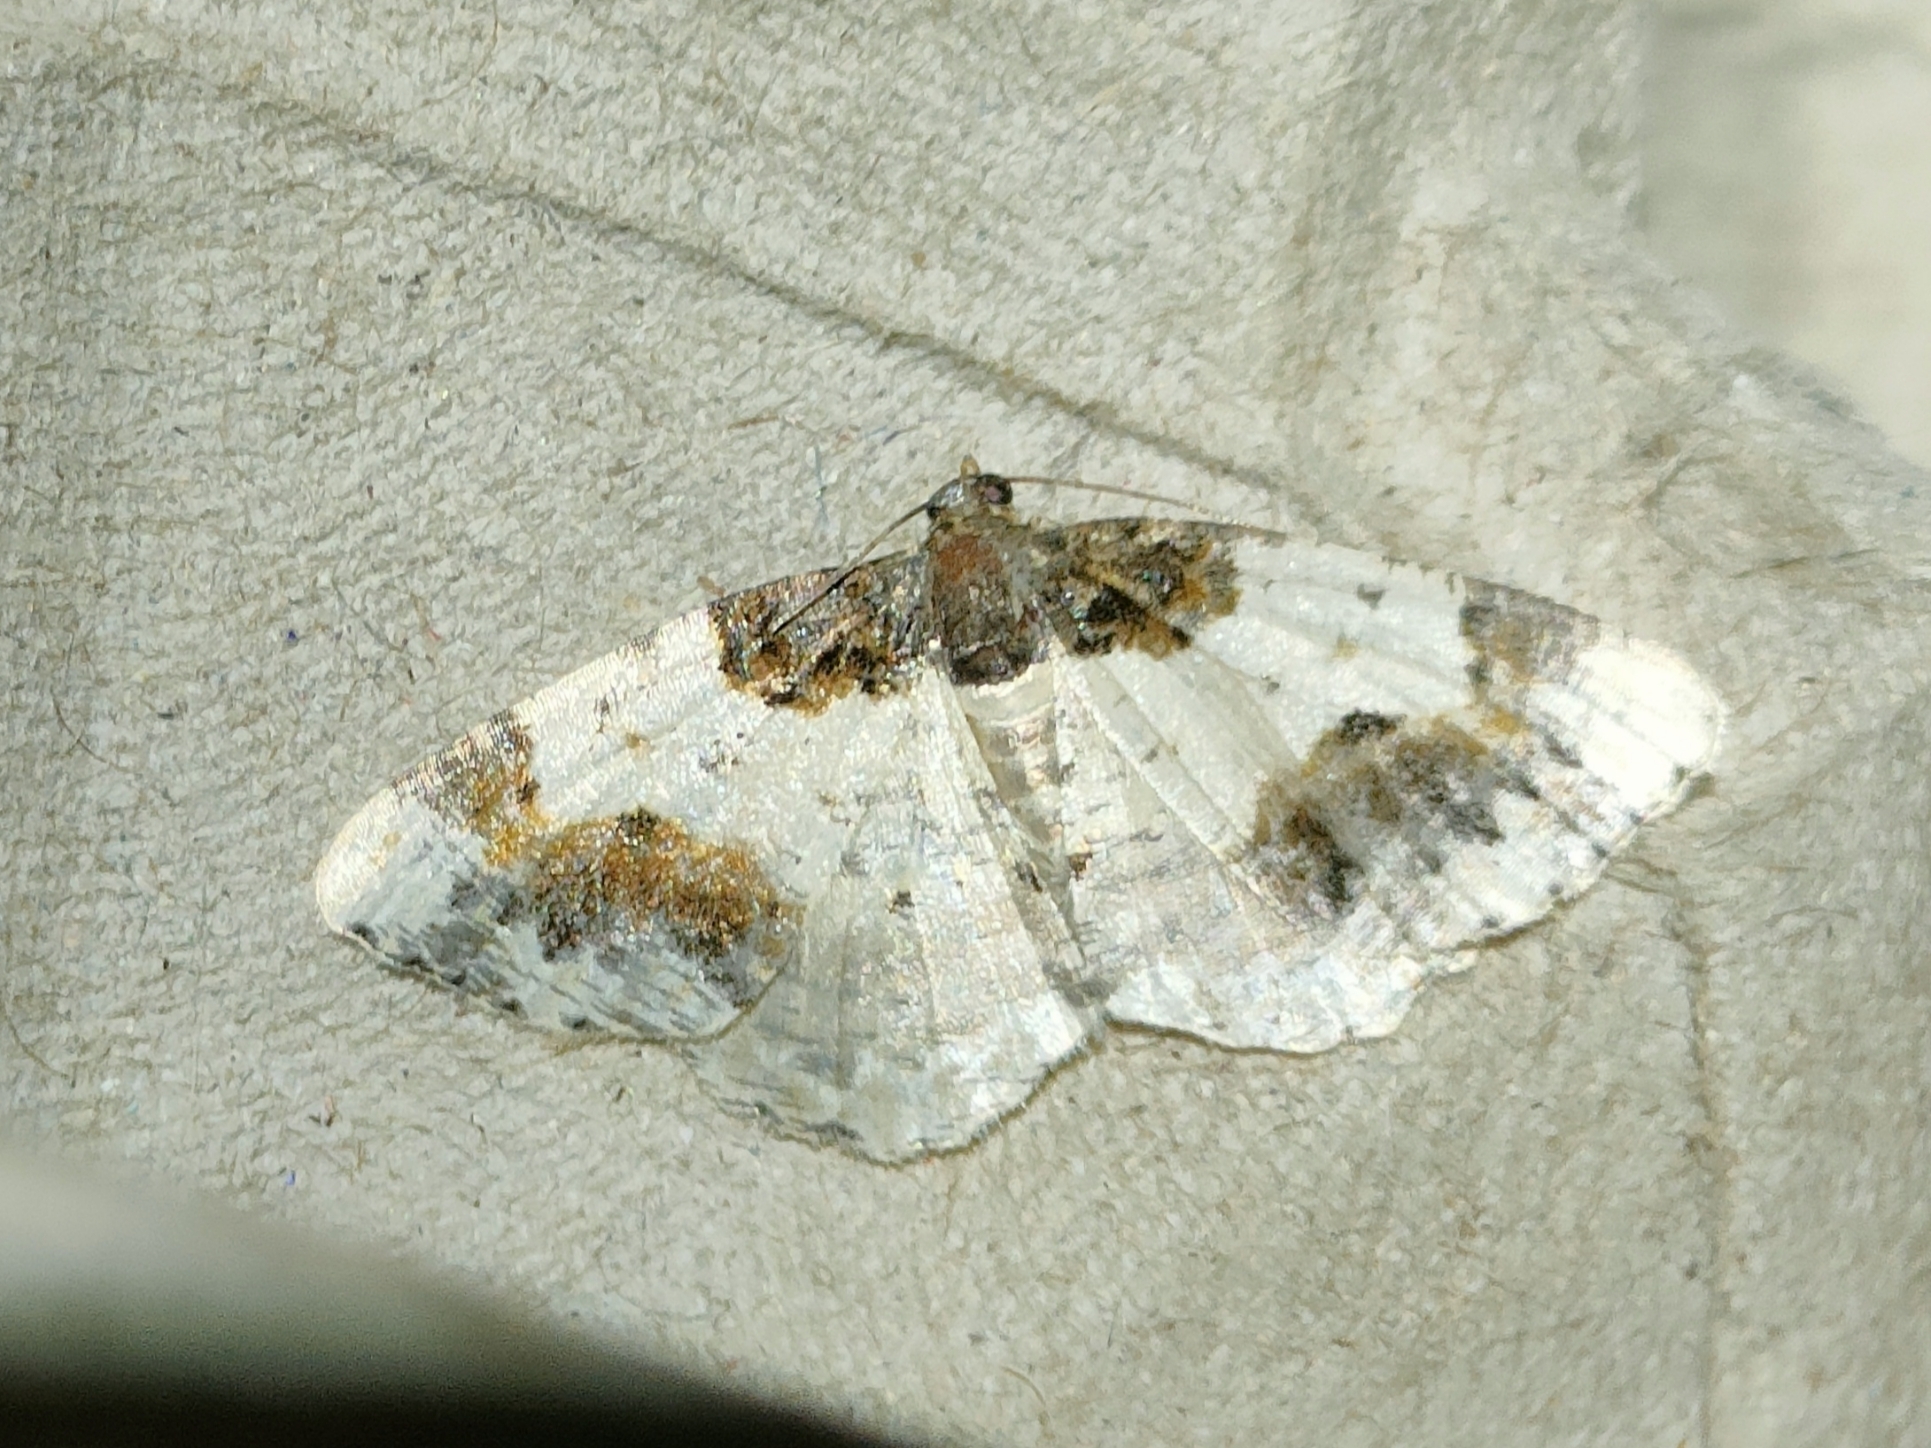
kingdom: Animalia
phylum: Arthropoda
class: Insecta
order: Lepidoptera
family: Geometridae
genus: Ligdia
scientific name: Ligdia adustata
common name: Scorched carpet
